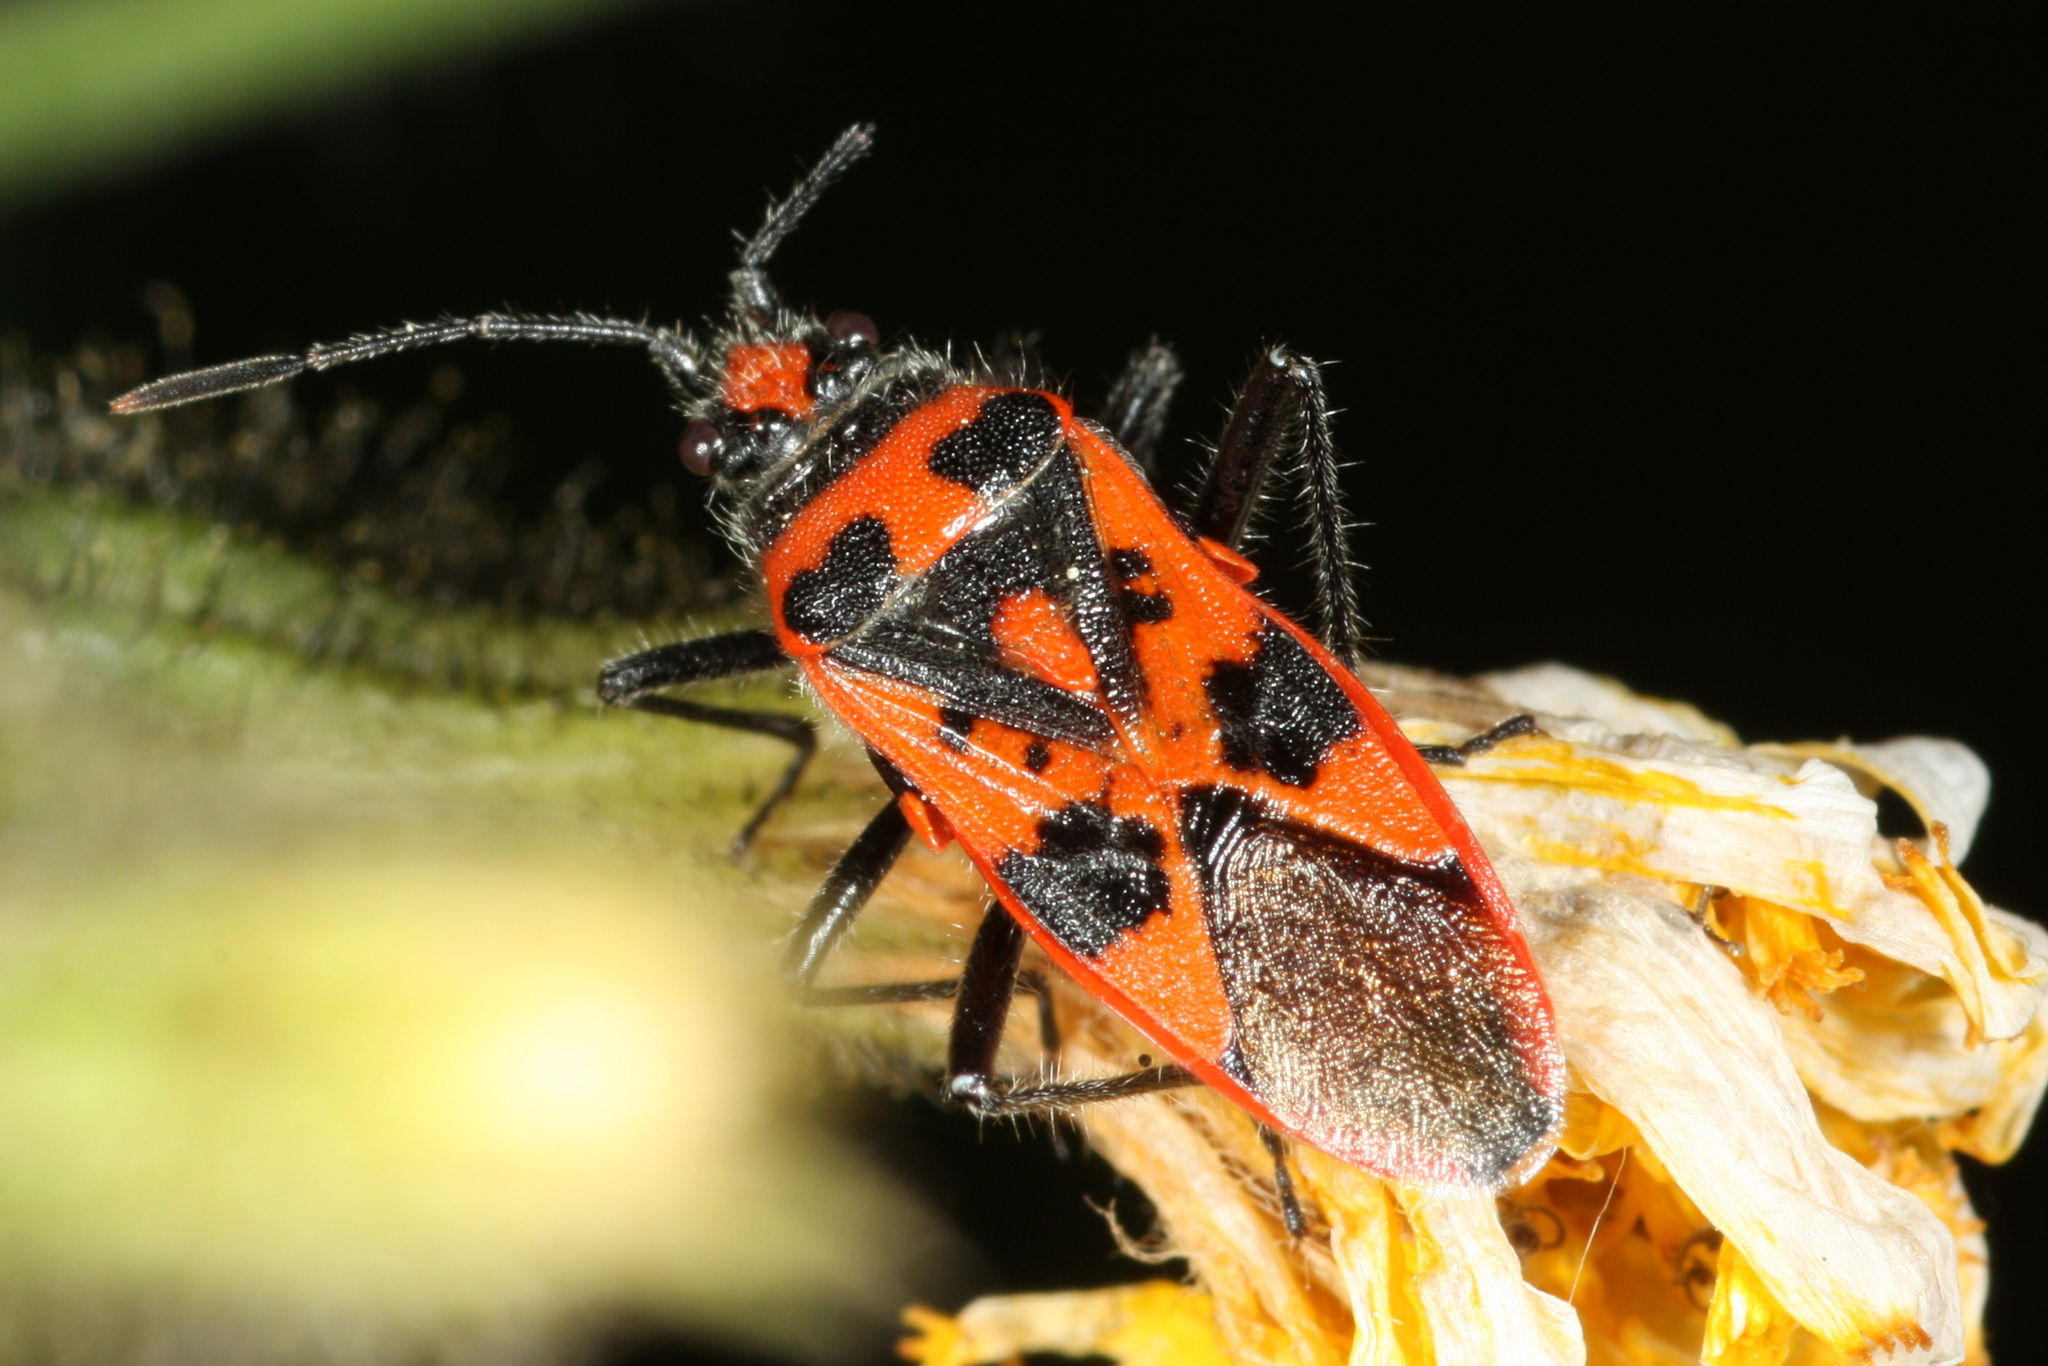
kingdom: Animalia
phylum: Arthropoda
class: Insecta
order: Hemiptera
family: Rhopalidae
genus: Corizus
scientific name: Corizus hyoscyami
